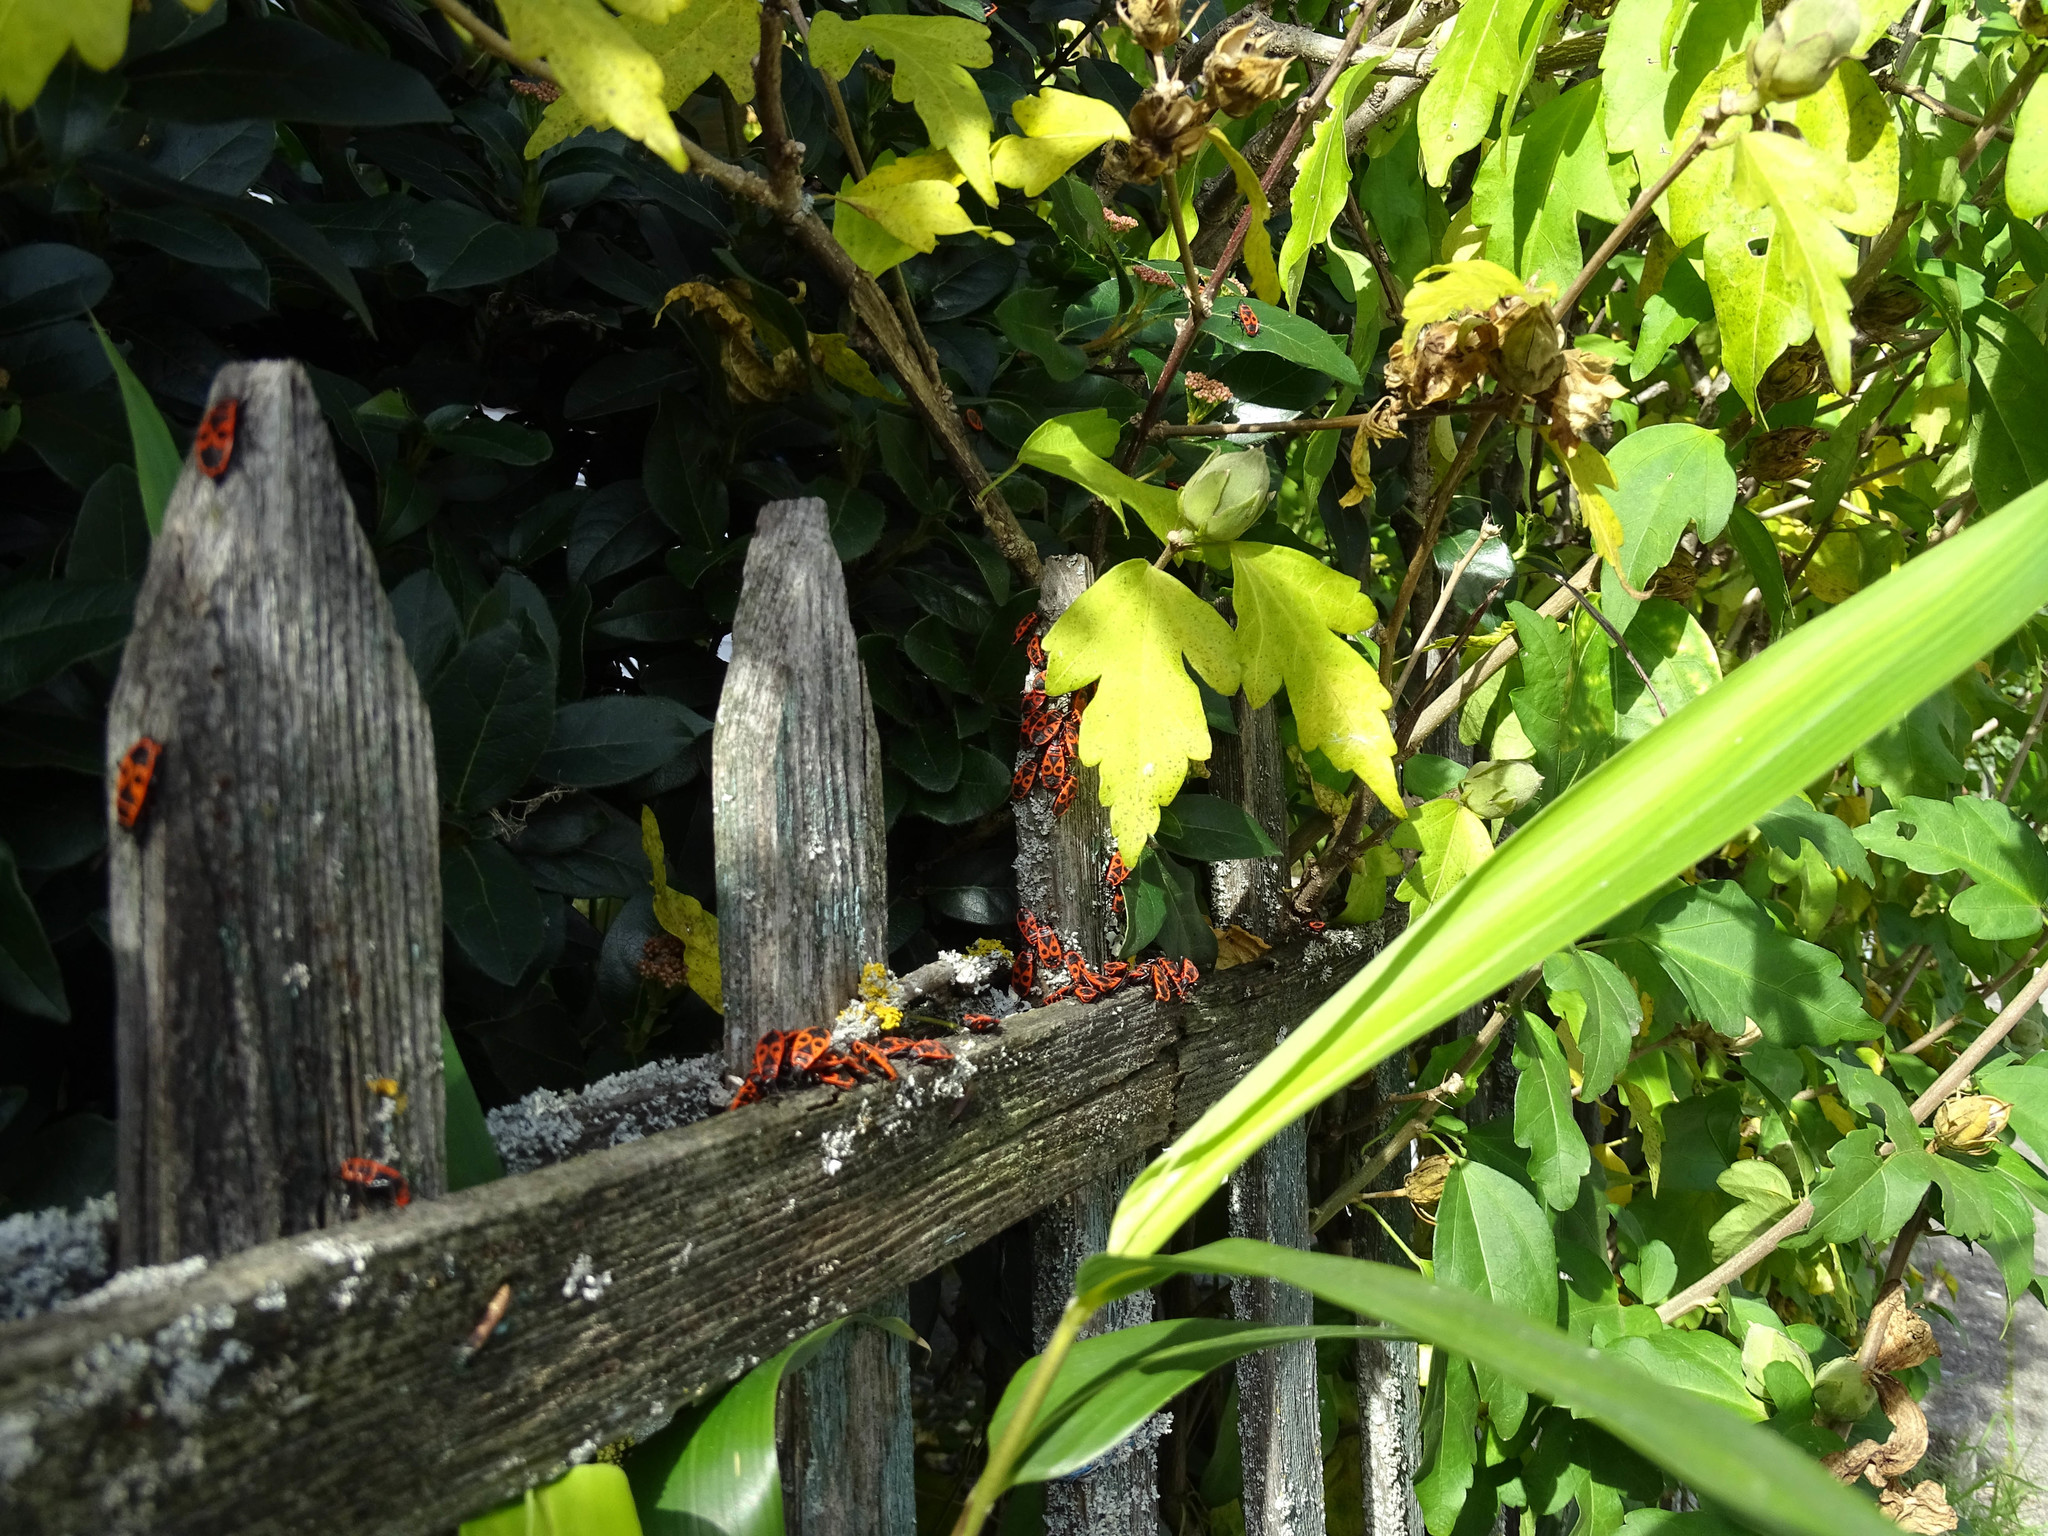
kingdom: Animalia
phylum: Arthropoda
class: Insecta
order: Hemiptera
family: Pyrrhocoridae
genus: Pyrrhocoris
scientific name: Pyrrhocoris apterus
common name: Firebug
